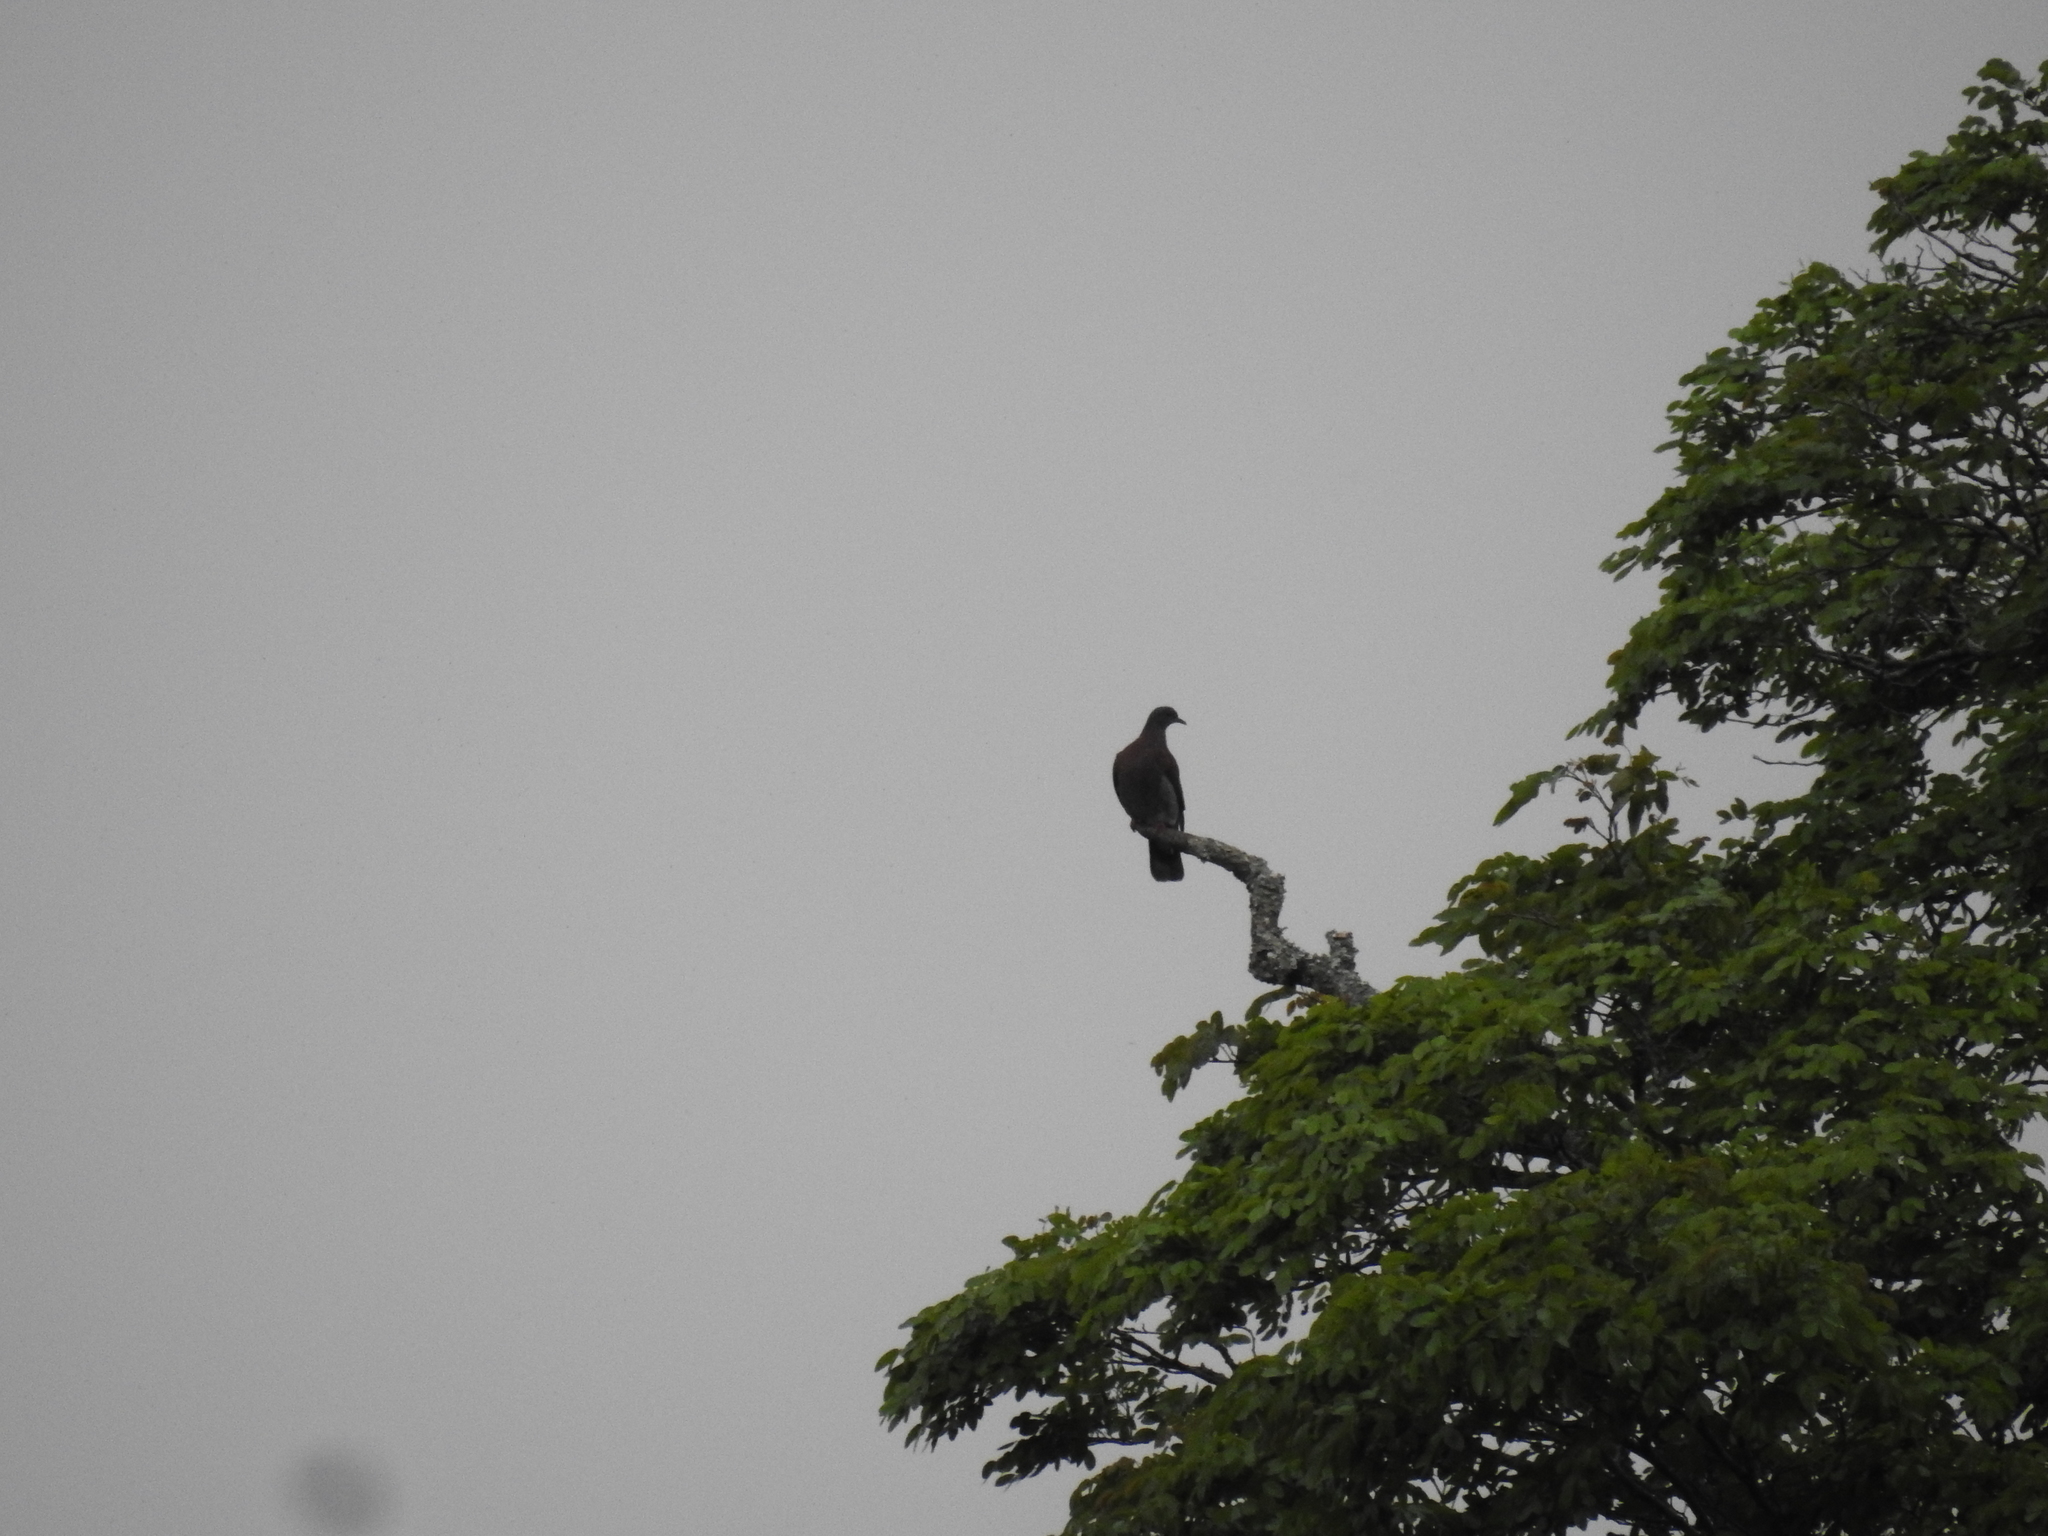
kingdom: Animalia
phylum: Chordata
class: Aves
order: Columbiformes
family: Columbidae
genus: Patagioenas
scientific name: Patagioenas cayennensis
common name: Pale-vented pigeon
